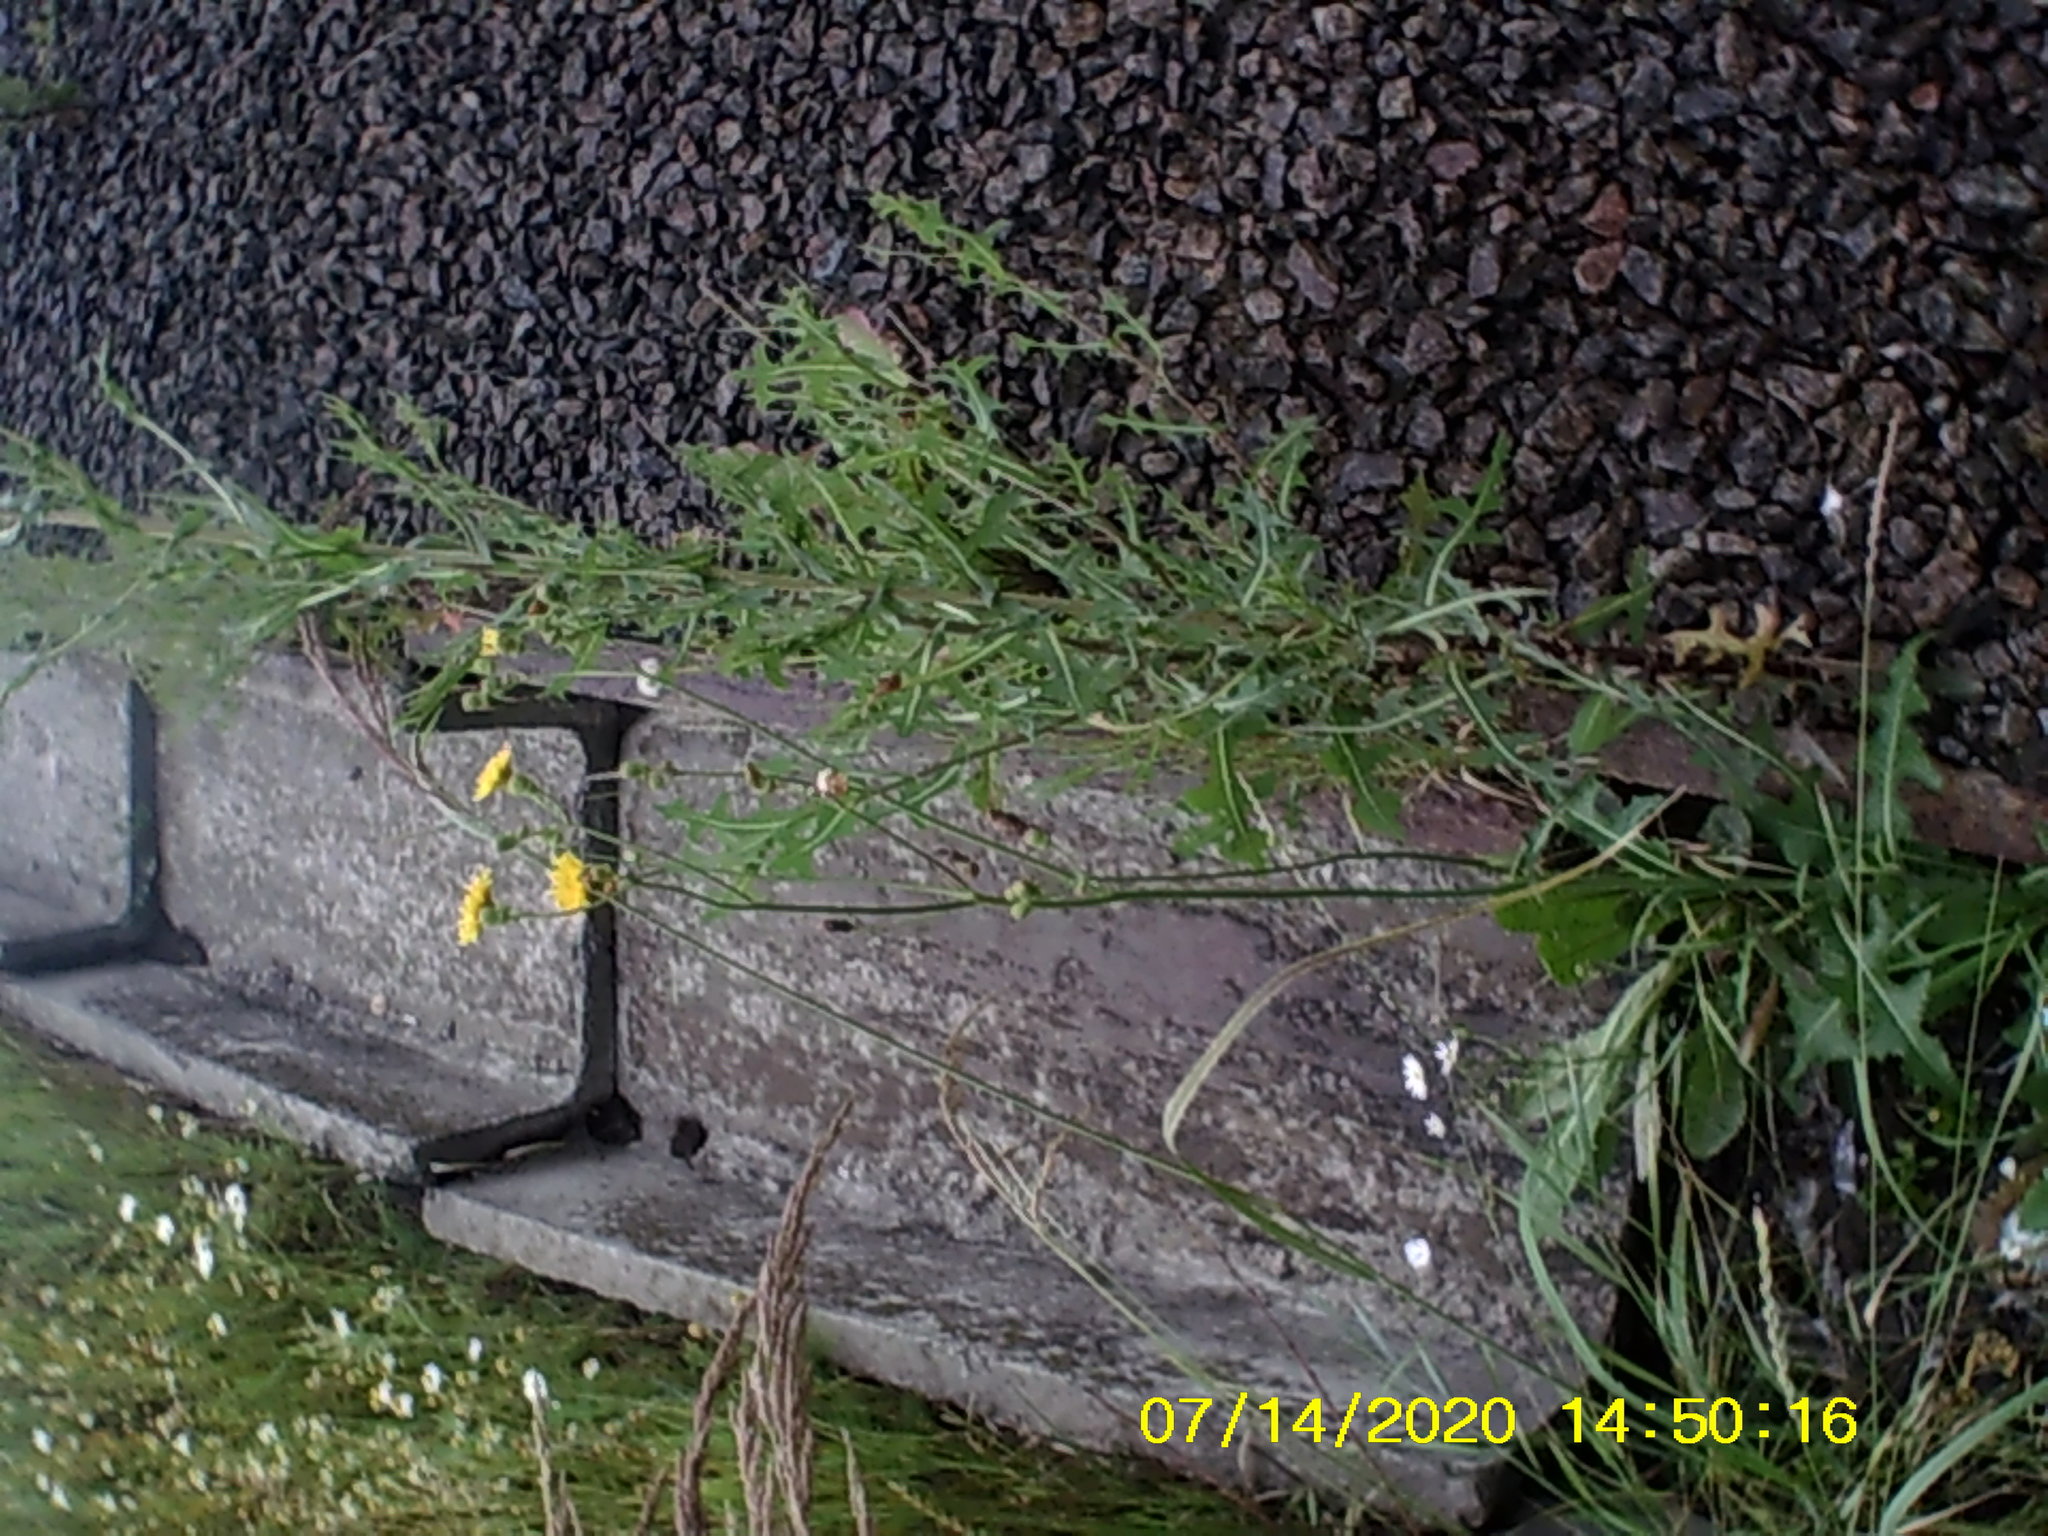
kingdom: Plantae
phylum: Tracheophyta
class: Magnoliopsida
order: Asterales
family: Asteraceae
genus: Sonchus
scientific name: Sonchus arvensis
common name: Perennial sow-thistle
